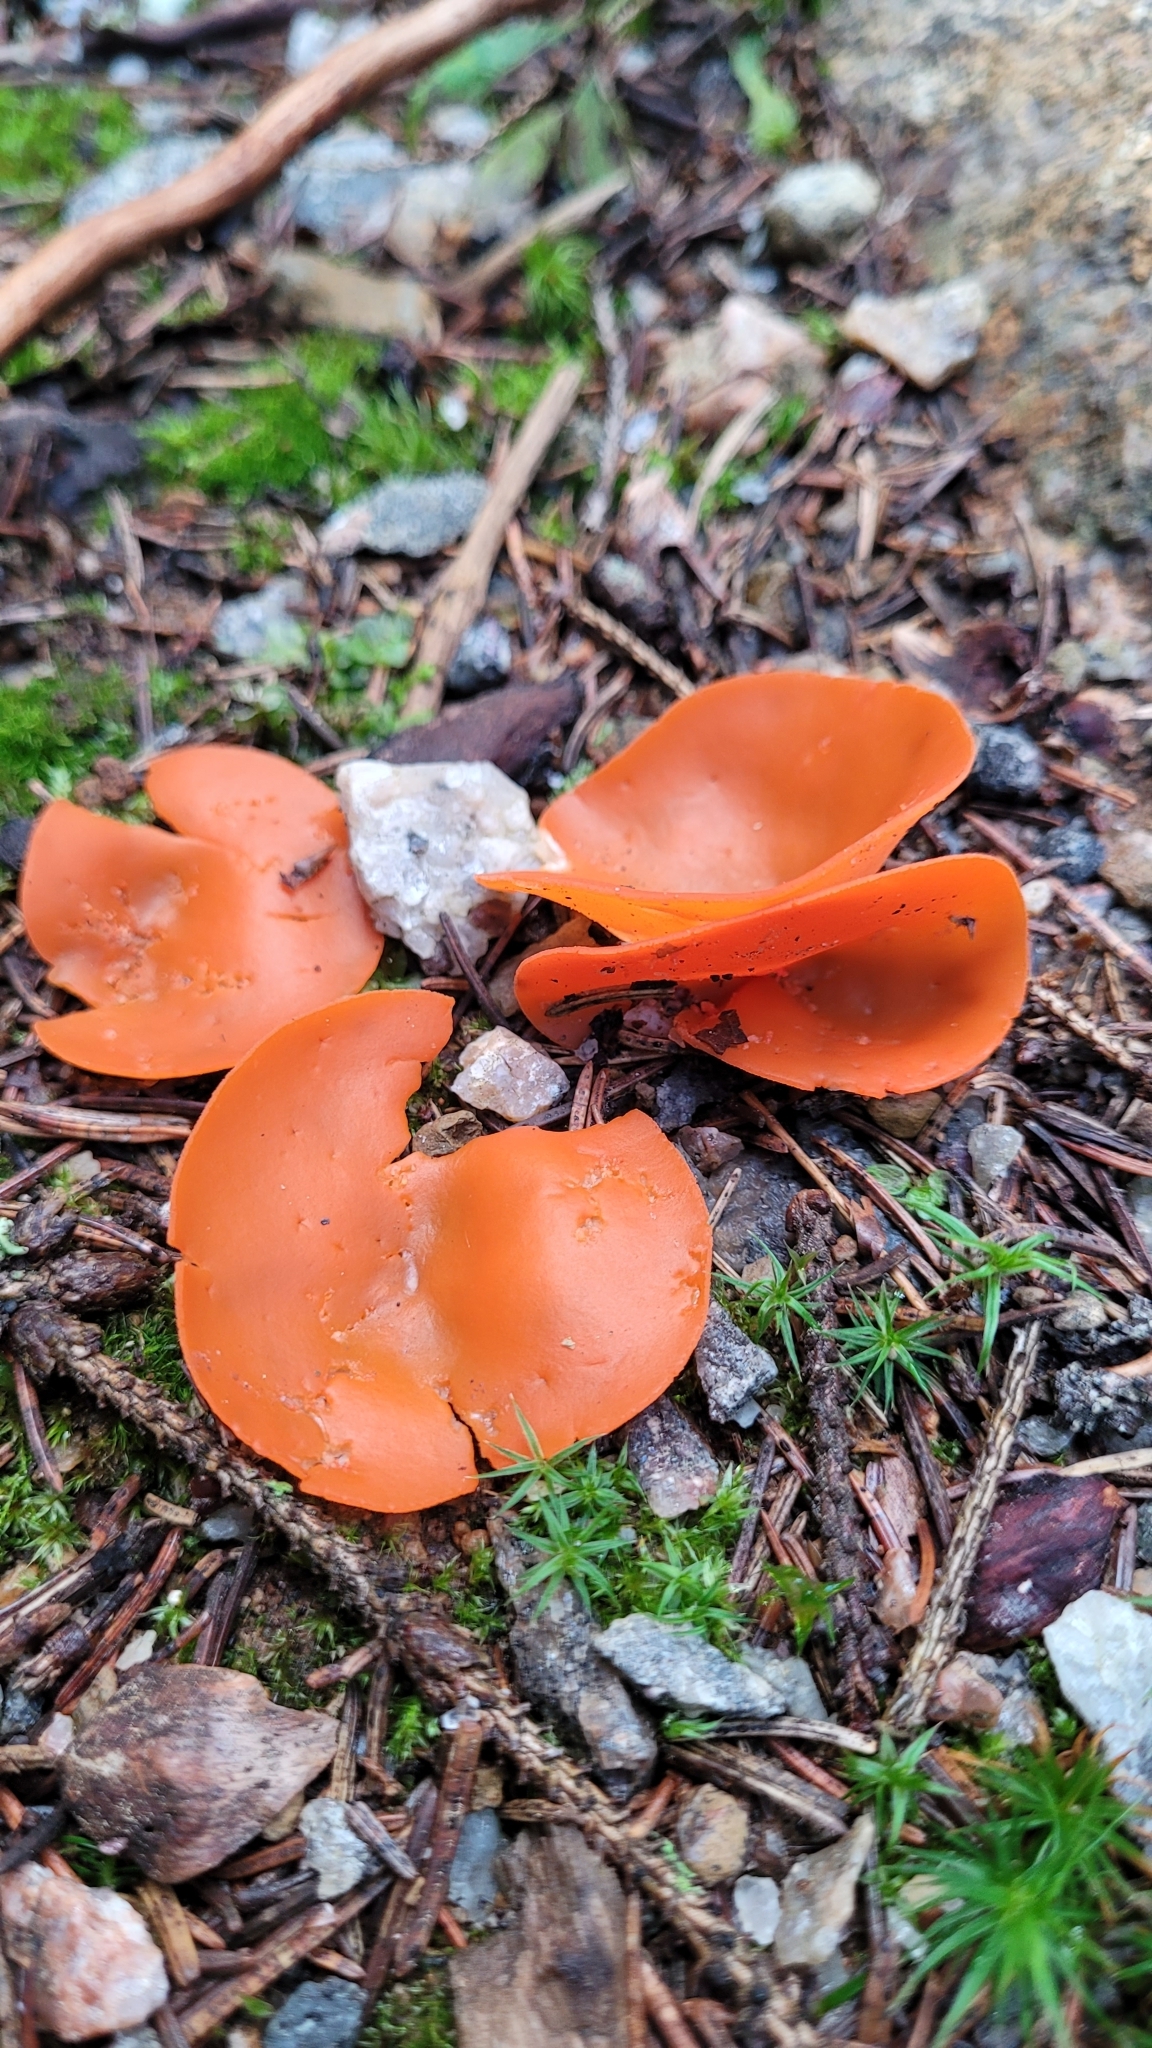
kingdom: Fungi
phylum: Ascomycota
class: Pezizomycetes
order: Pezizales
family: Pyronemataceae
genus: Aleuria
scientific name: Aleuria aurantia
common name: Orange peel fungus
